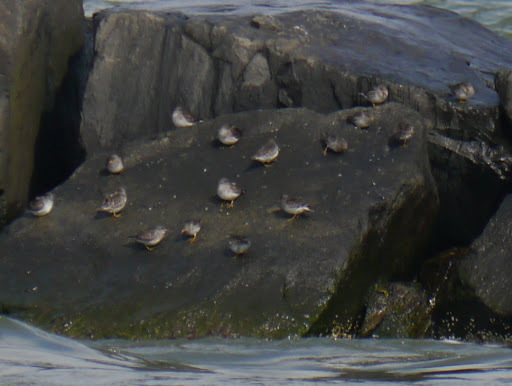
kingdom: Animalia
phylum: Chordata
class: Aves
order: Charadriiformes
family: Scolopacidae
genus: Calidris
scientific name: Calidris maritima
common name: Purple sandpiper
